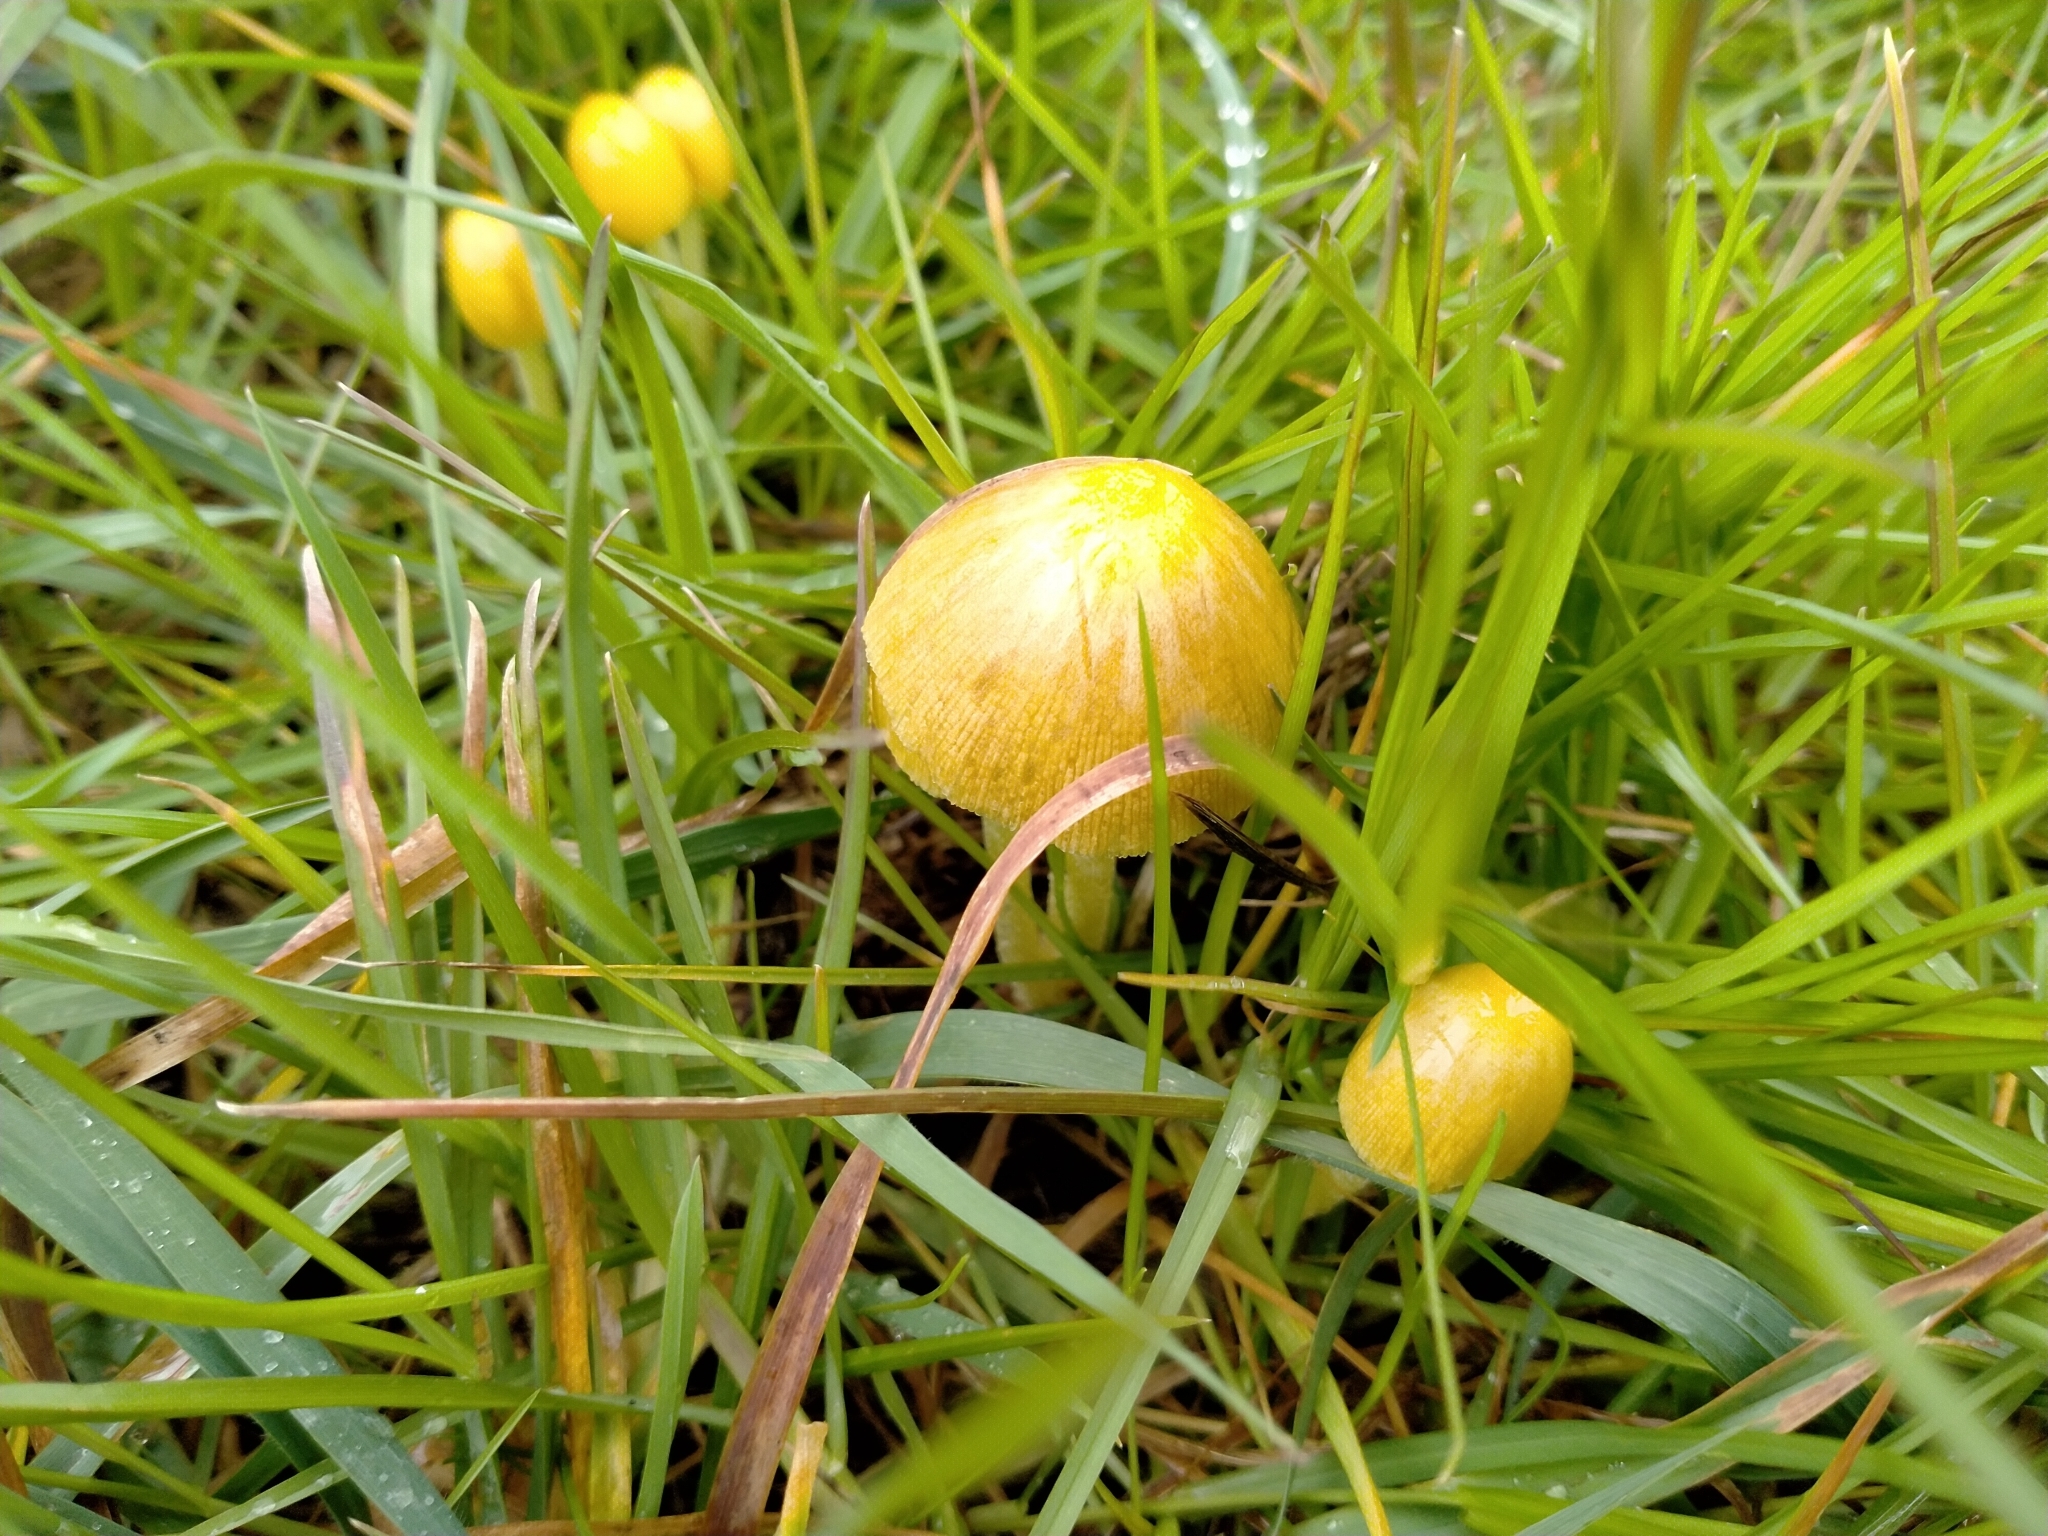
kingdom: Fungi
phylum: Basidiomycota
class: Agaricomycetes
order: Agaricales
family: Bolbitiaceae
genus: Bolbitius
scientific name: Bolbitius titubans
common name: Yellow fieldcap
